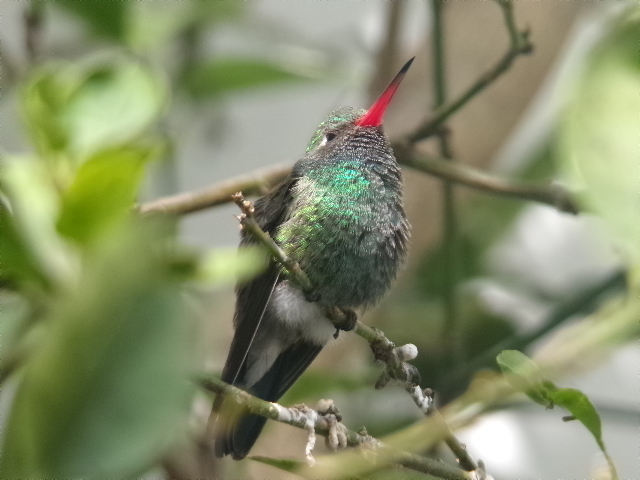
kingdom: Animalia
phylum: Chordata
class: Aves
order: Apodiformes
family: Trochilidae
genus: Cynanthus
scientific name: Cynanthus latirostris
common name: Broad-billed hummingbird
